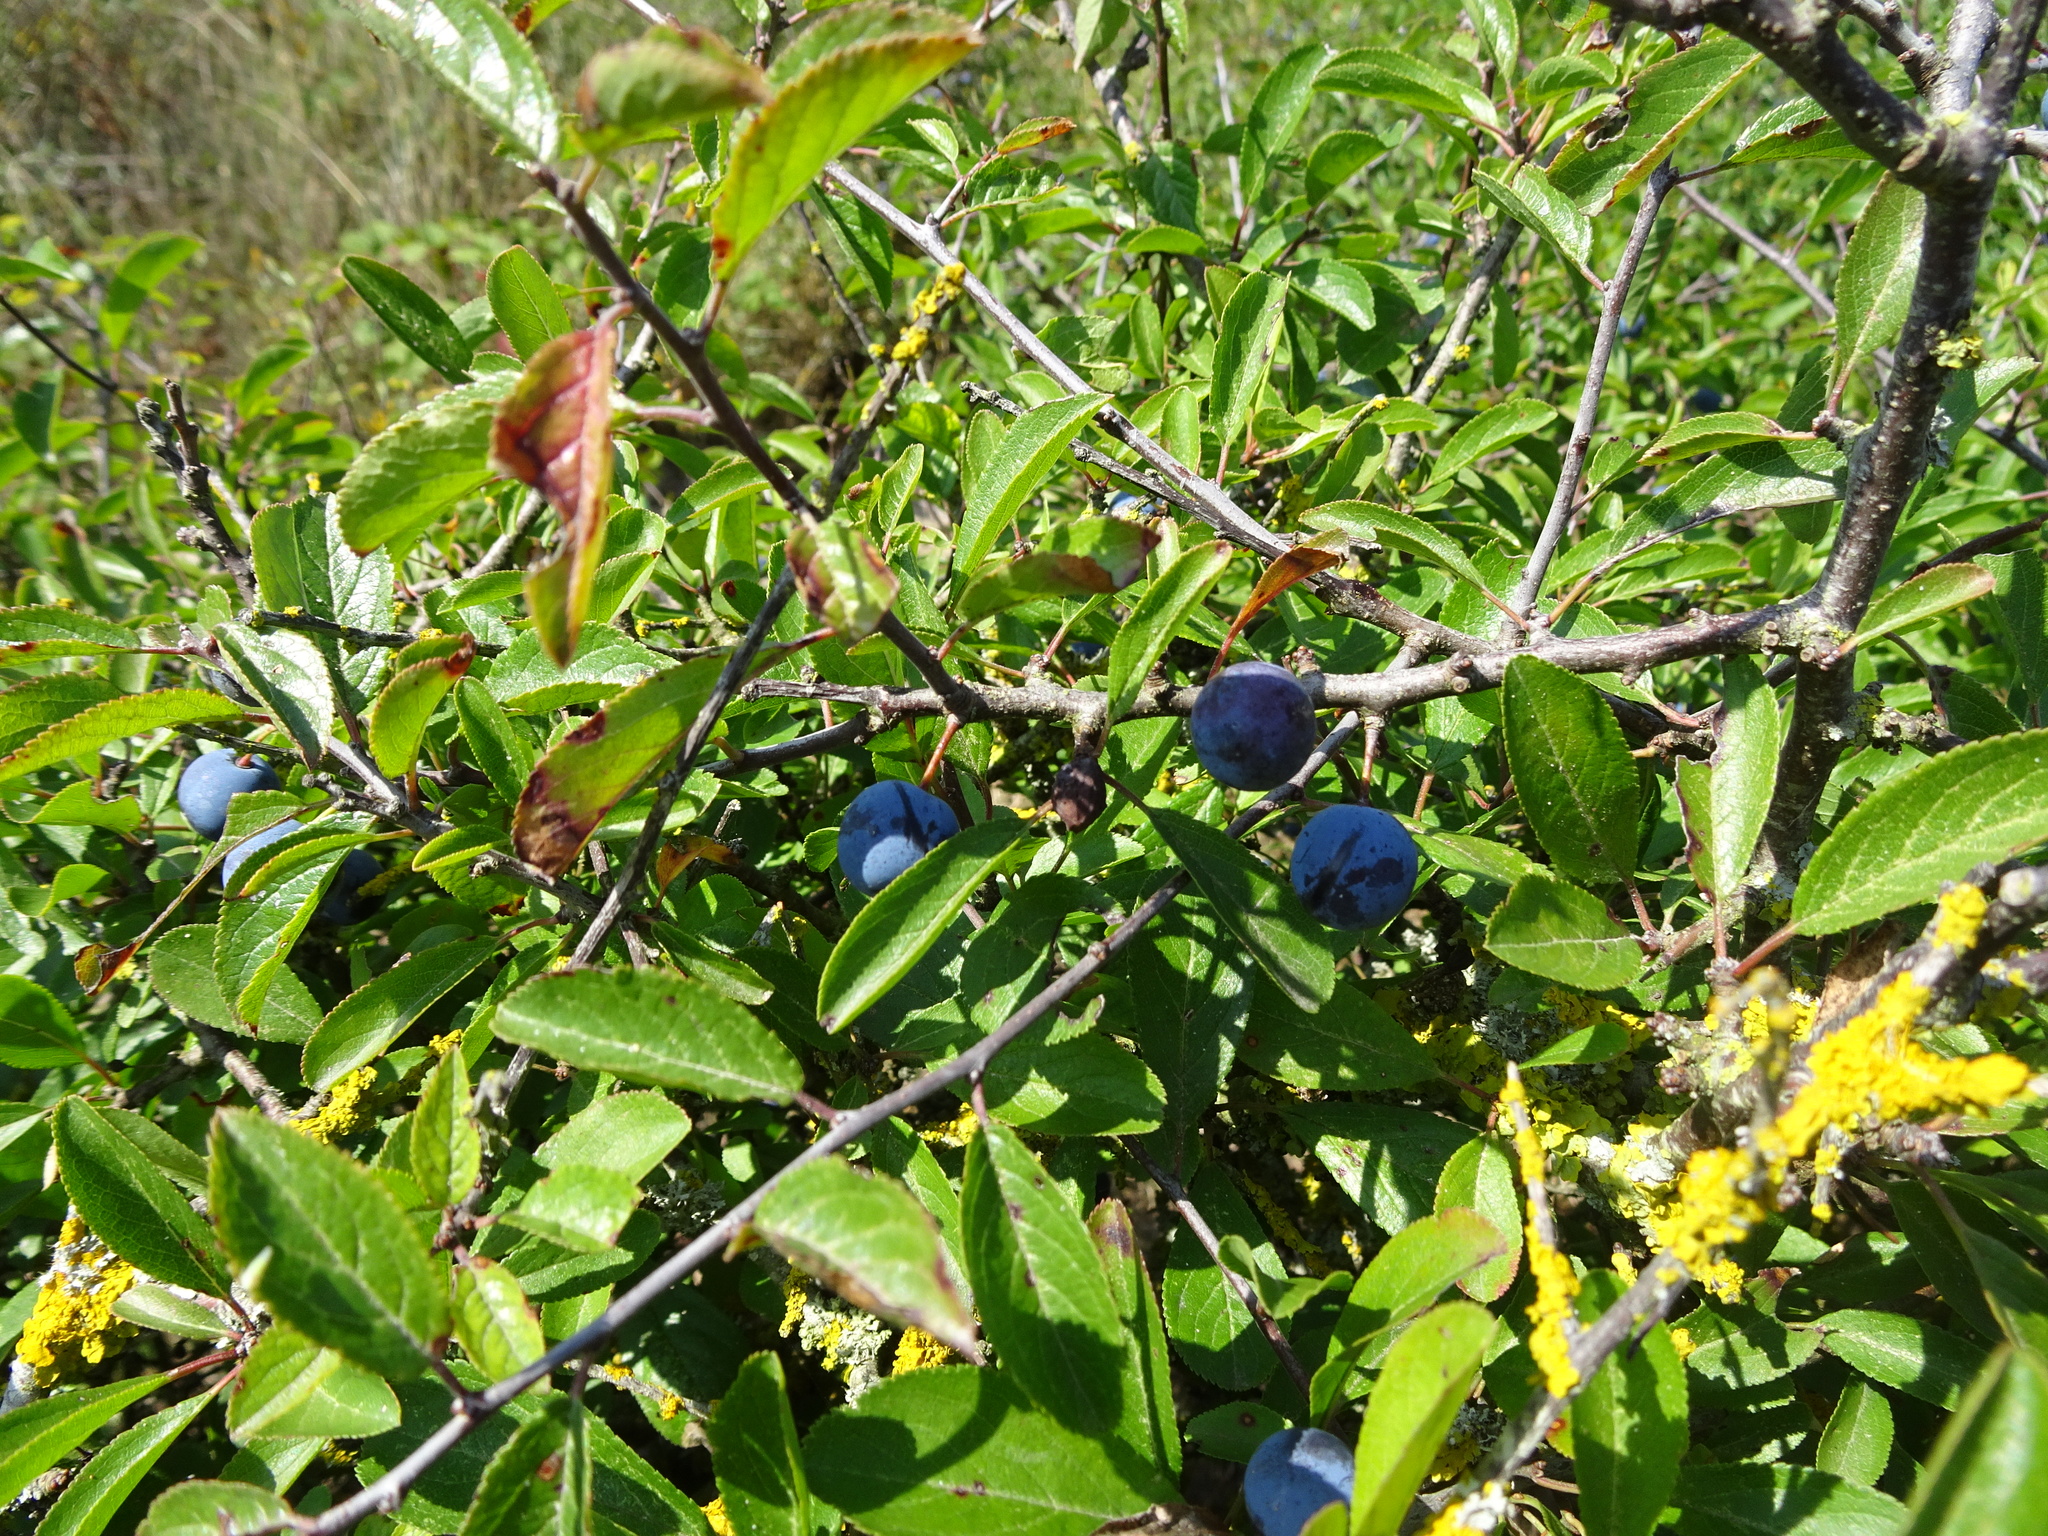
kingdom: Plantae
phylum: Tracheophyta
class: Magnoliopsida
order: Rosales
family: Rosaceae
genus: Prunus
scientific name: Prunus spinosa
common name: Blackthorn
